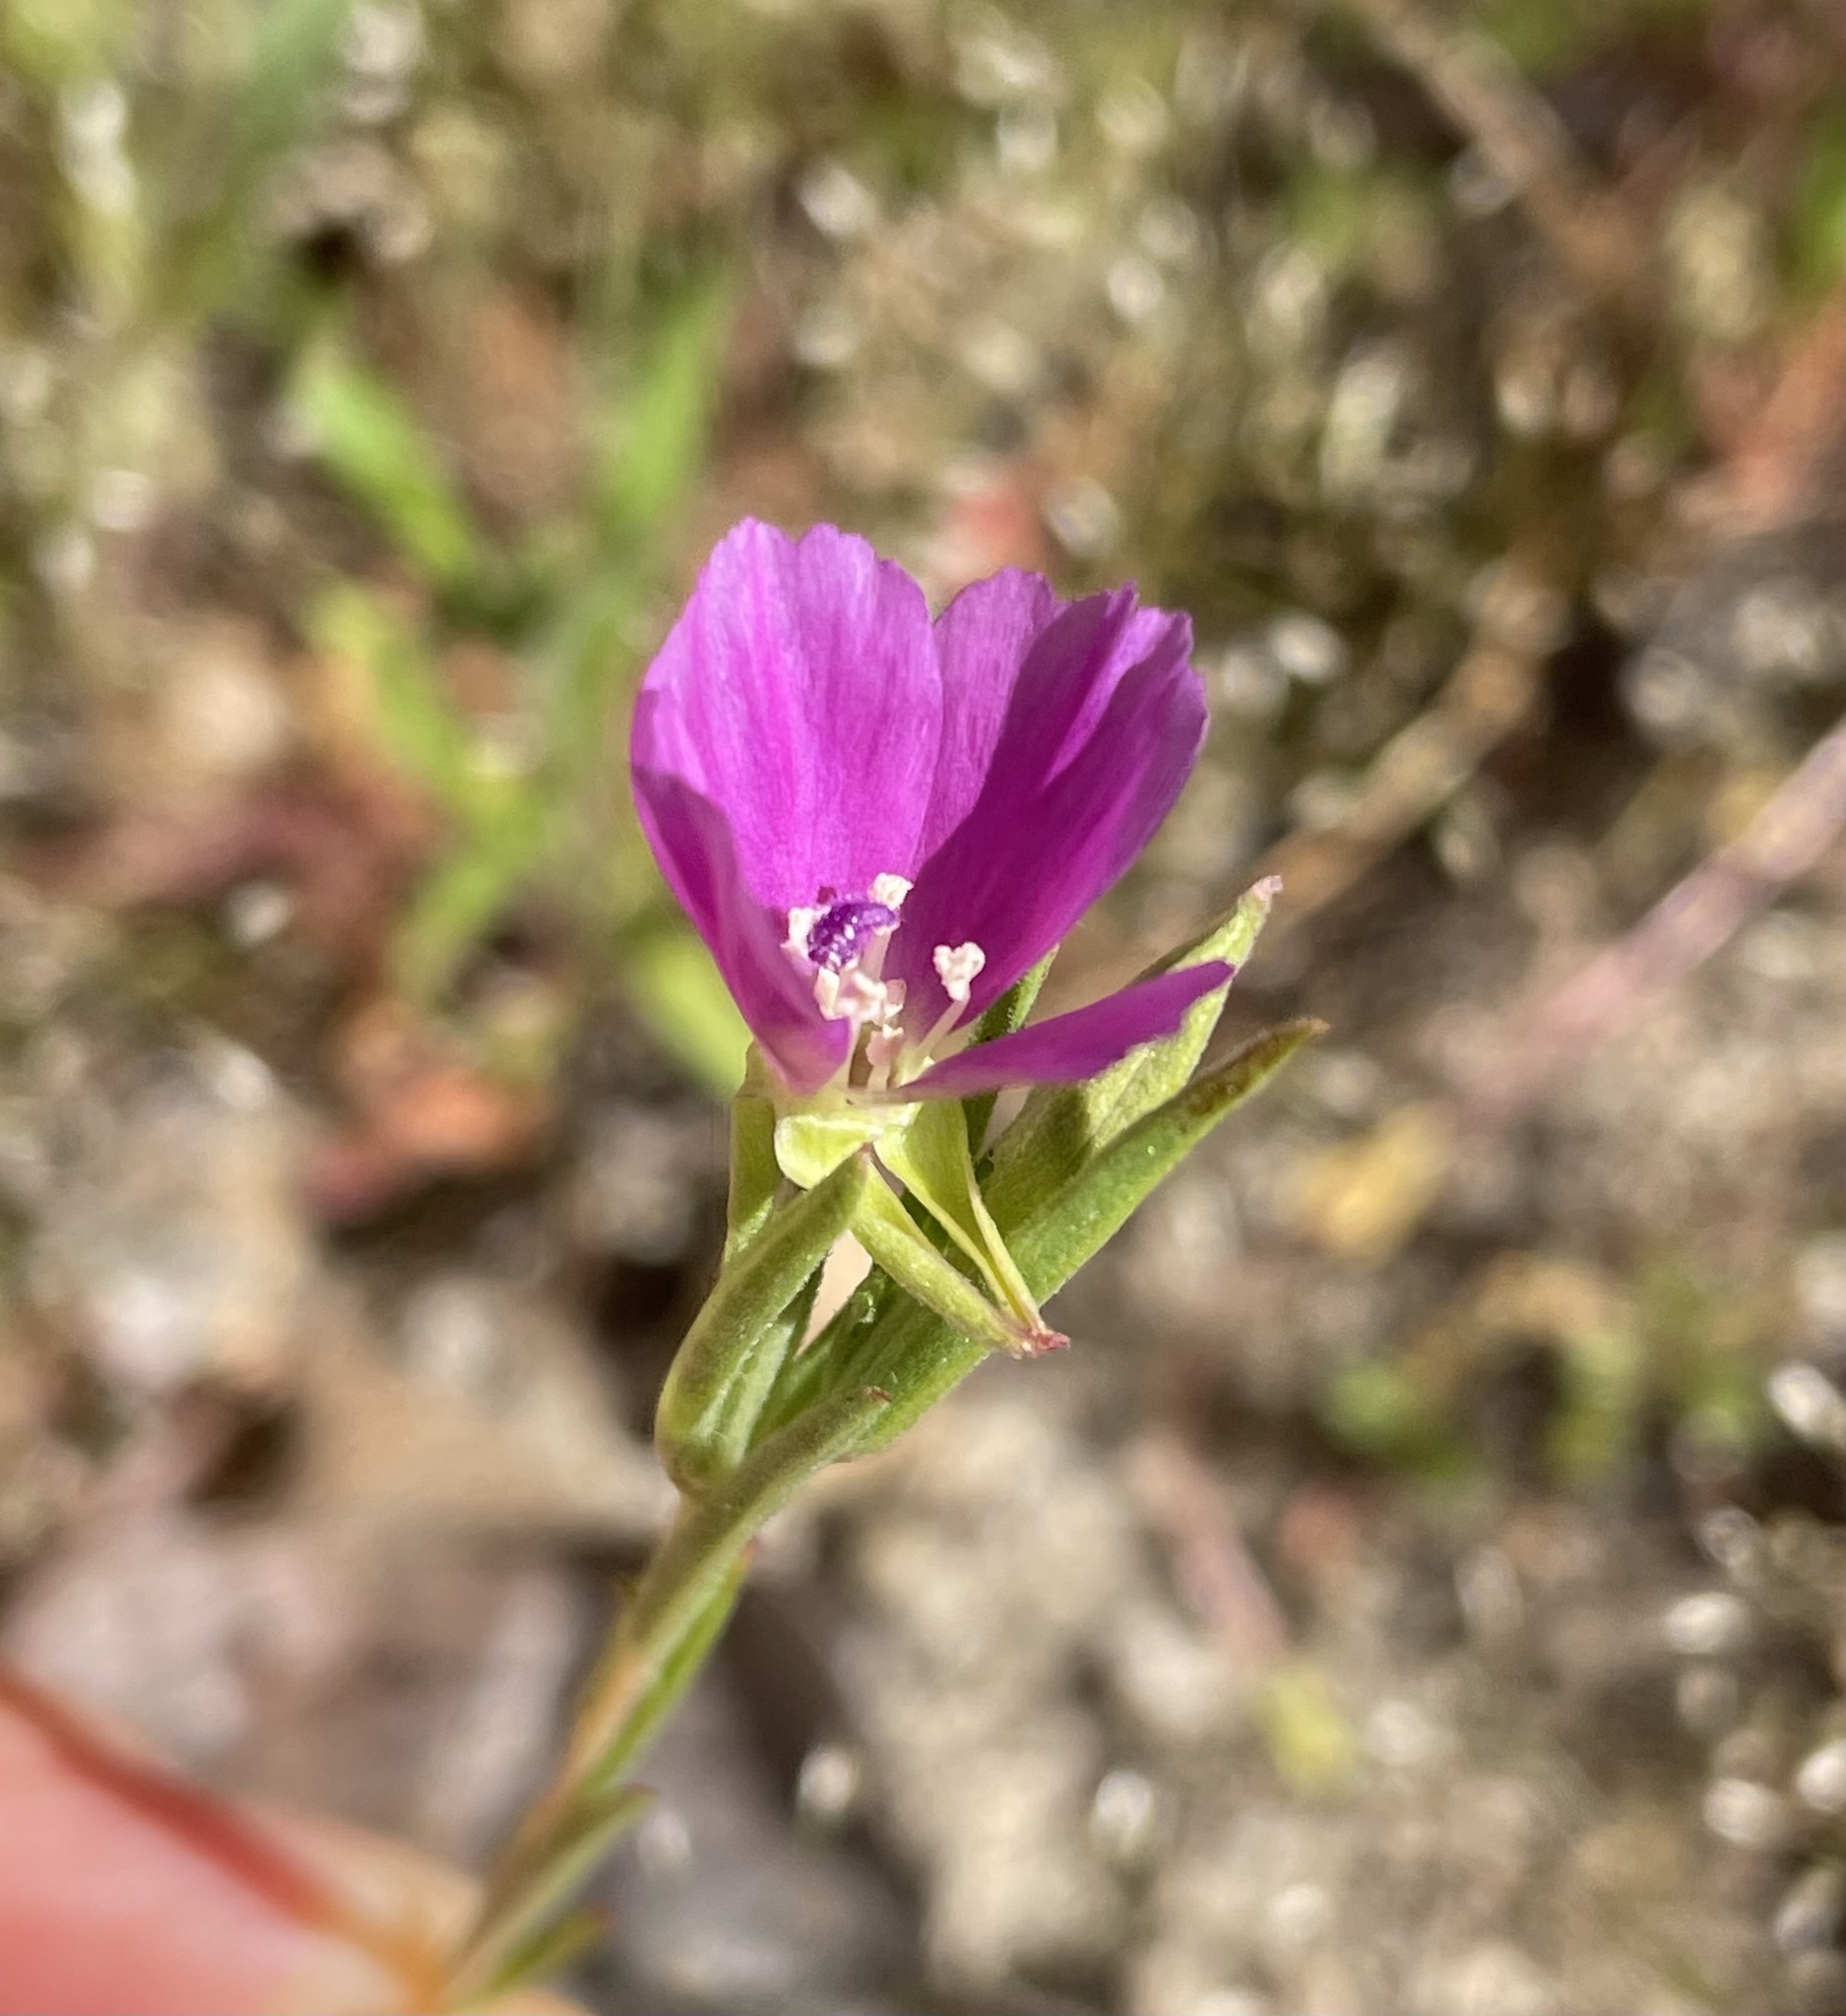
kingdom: Plantae
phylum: Tracheophyta
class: Magnoliopsida
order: Myrtales
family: Onagraceae
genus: Clarkia
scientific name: Clarkia purpurea
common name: Purple clarkia
